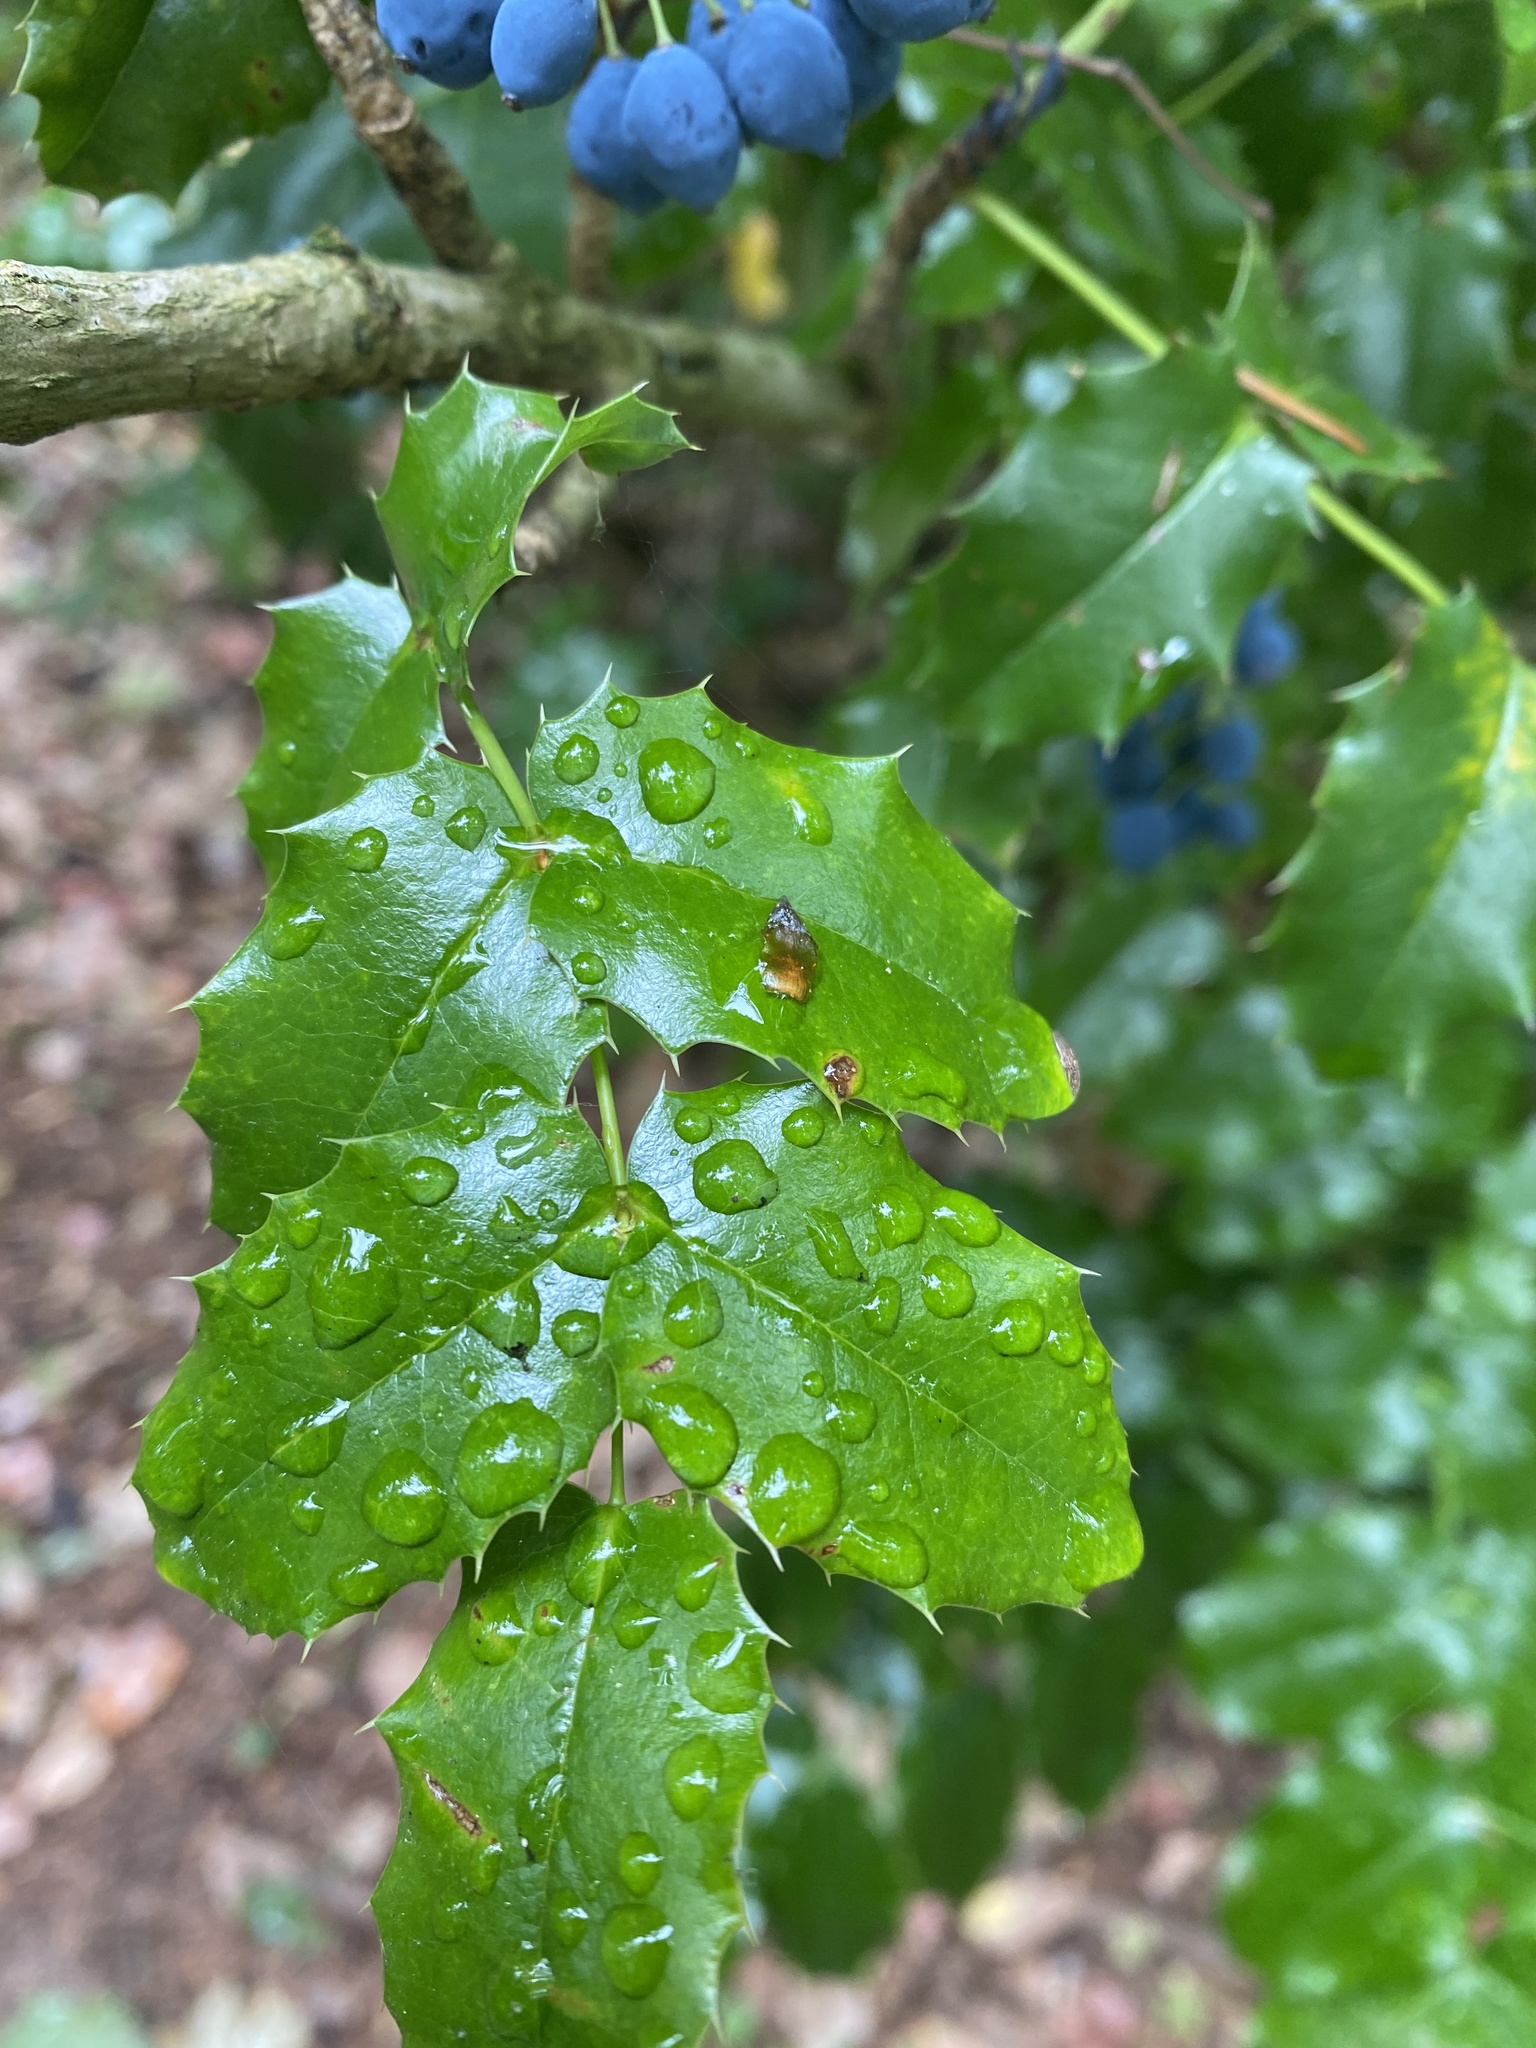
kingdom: Plantae
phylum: Tracheophyta
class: Magnoliopsida
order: Ranunculales
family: Berberidaceae
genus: Mahonia
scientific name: Mahonia aquifolium
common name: Oregon-grape
